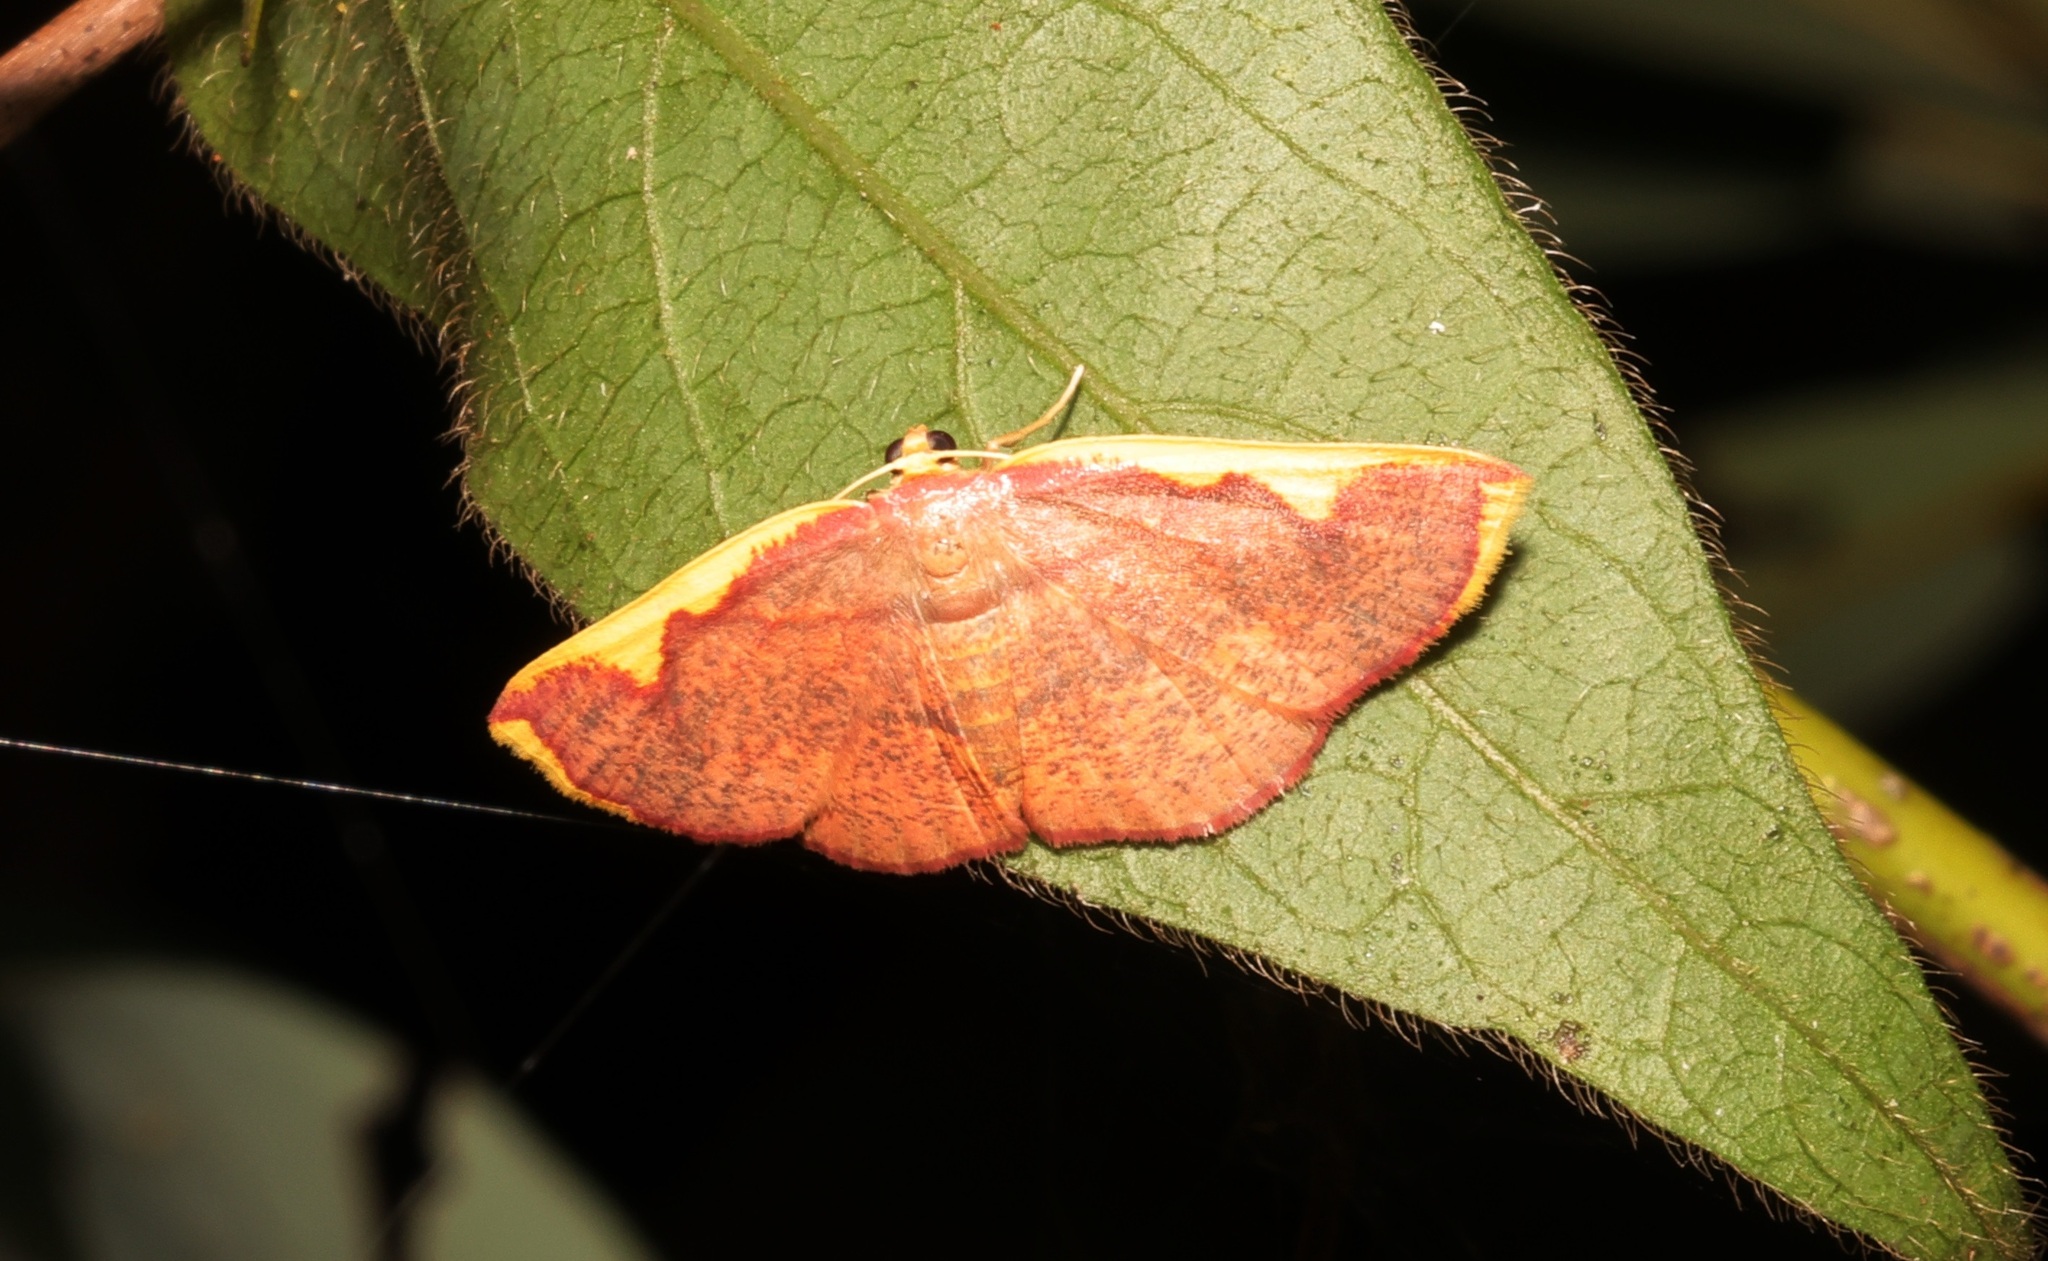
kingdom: Animalia
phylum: Arthropoda
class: Insecta
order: Lepidoptera
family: Geometridae
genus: Nothomiza
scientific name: Nothomiza flavicosta
